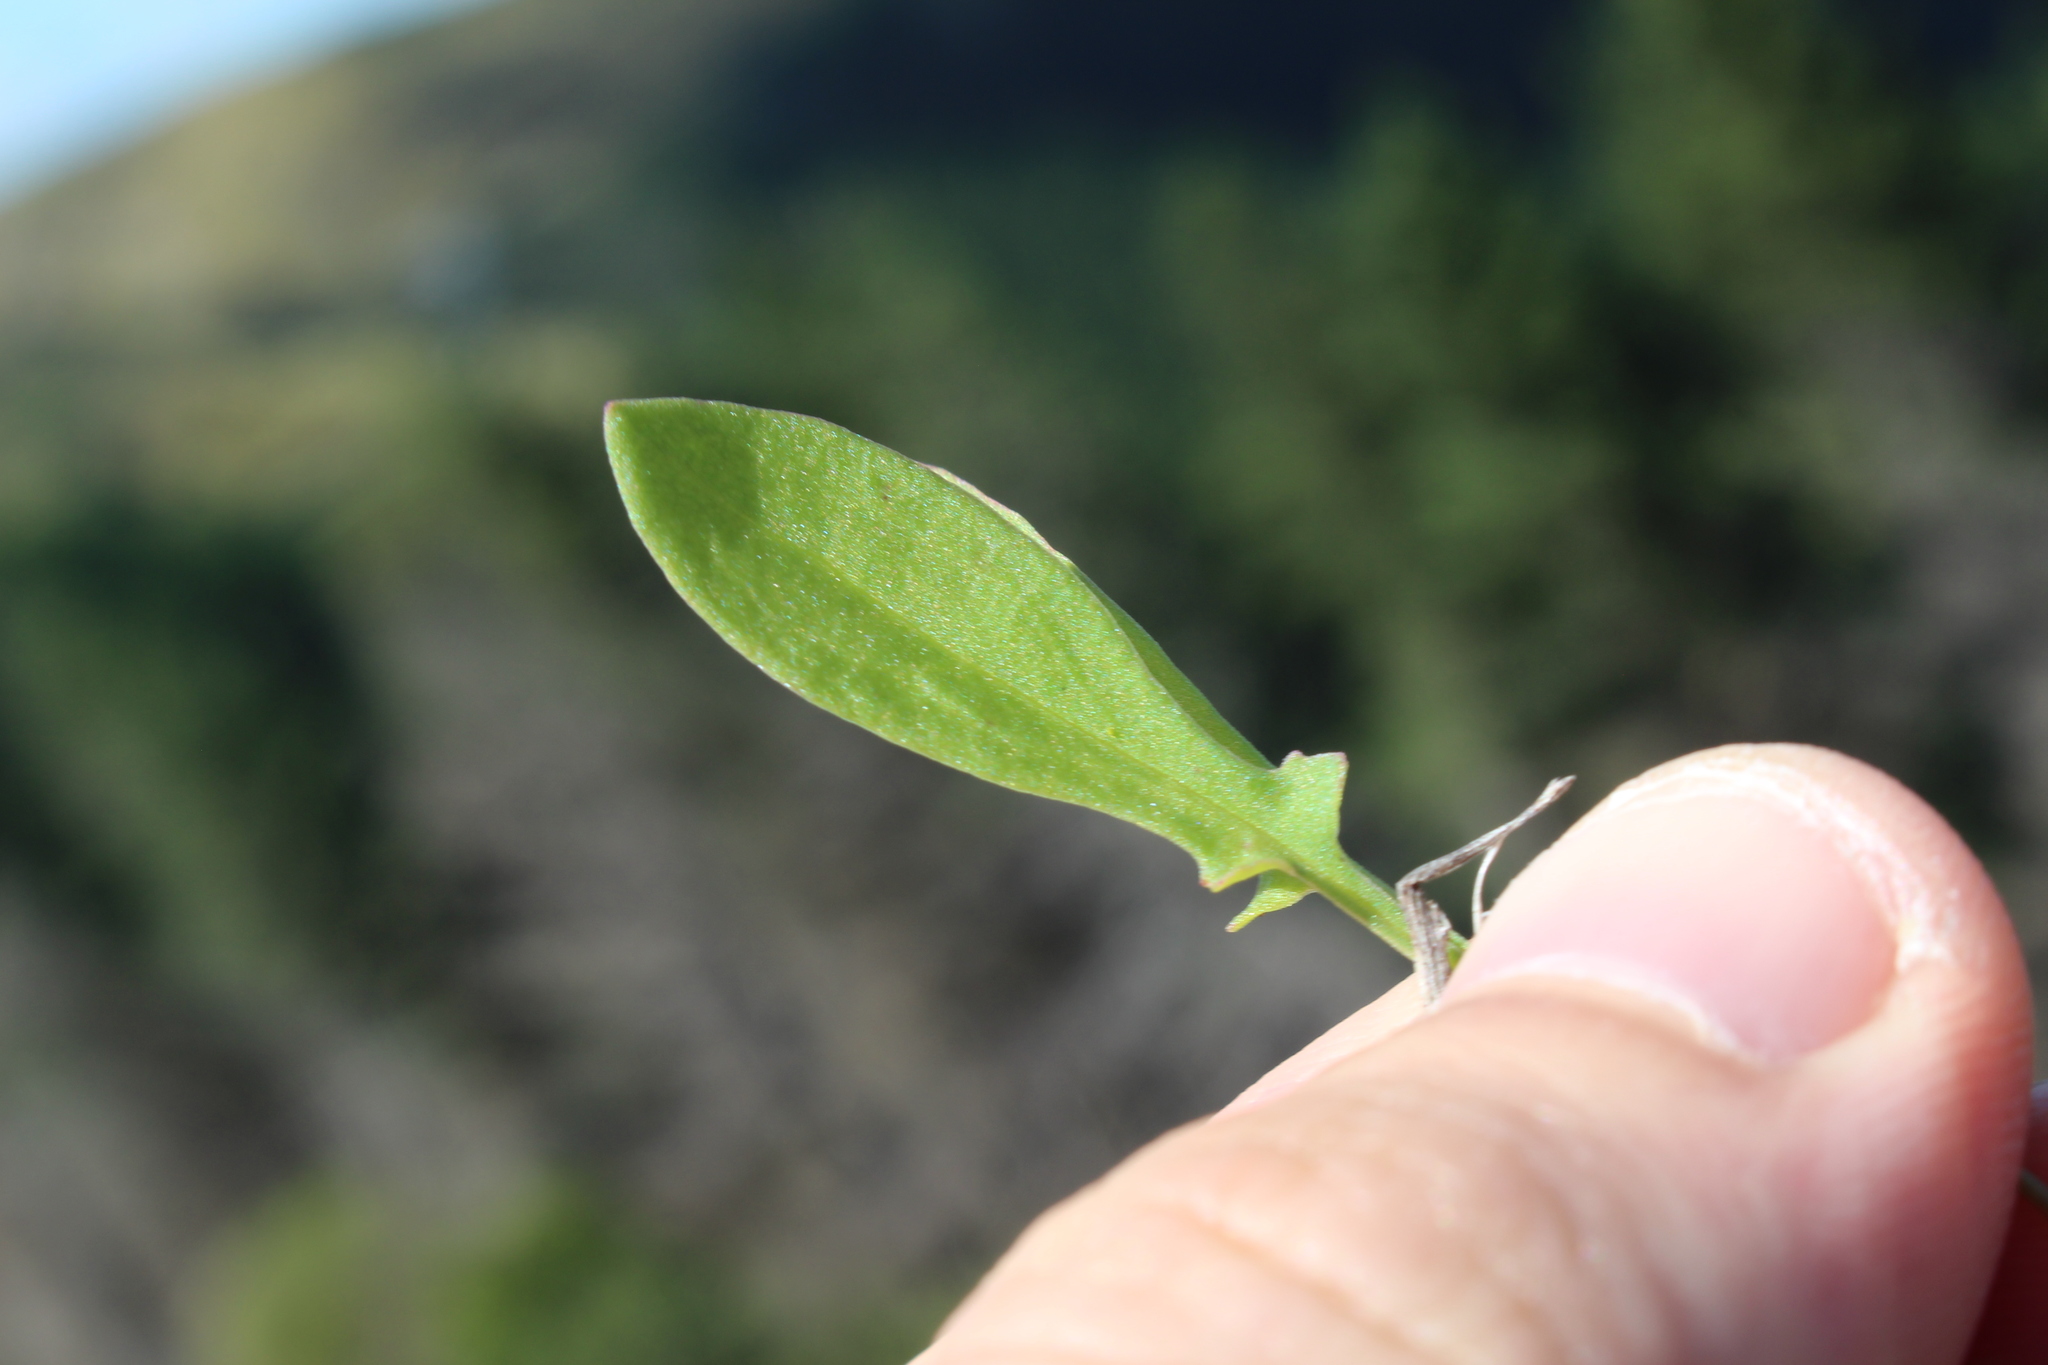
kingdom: Plantae
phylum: Tracheophyta
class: Magnoliopsida
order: Caryophyllales
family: Polygonaceae
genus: Rumex
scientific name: Rumex acetosella
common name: Common sheep sorrel
